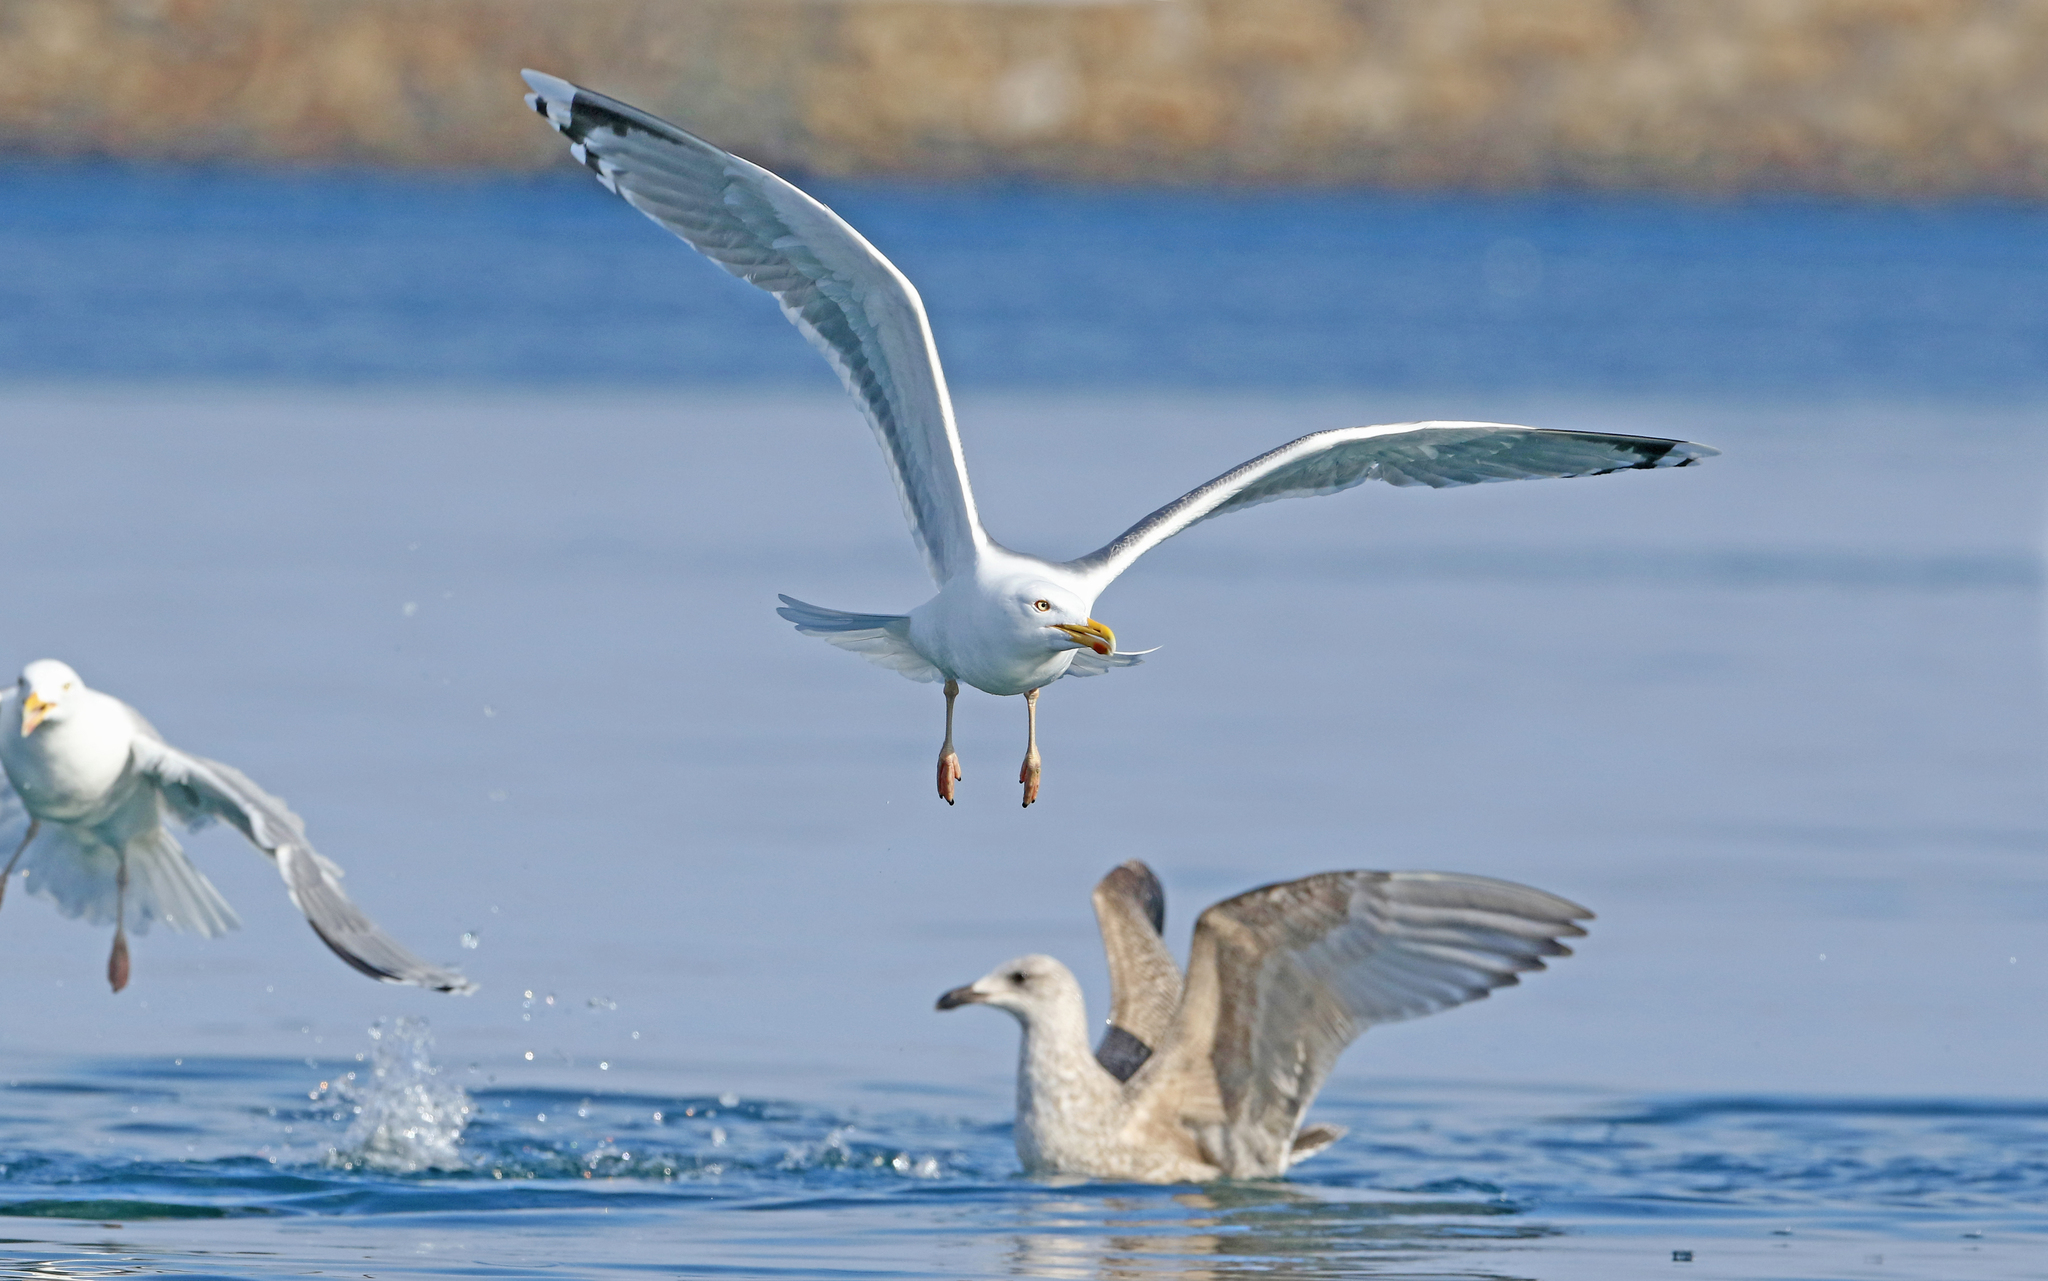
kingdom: Animalia
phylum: Chordata
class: Aves
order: Charadriiformes
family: Laridae
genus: Larus
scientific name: Larus argentatus
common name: Herring gull
